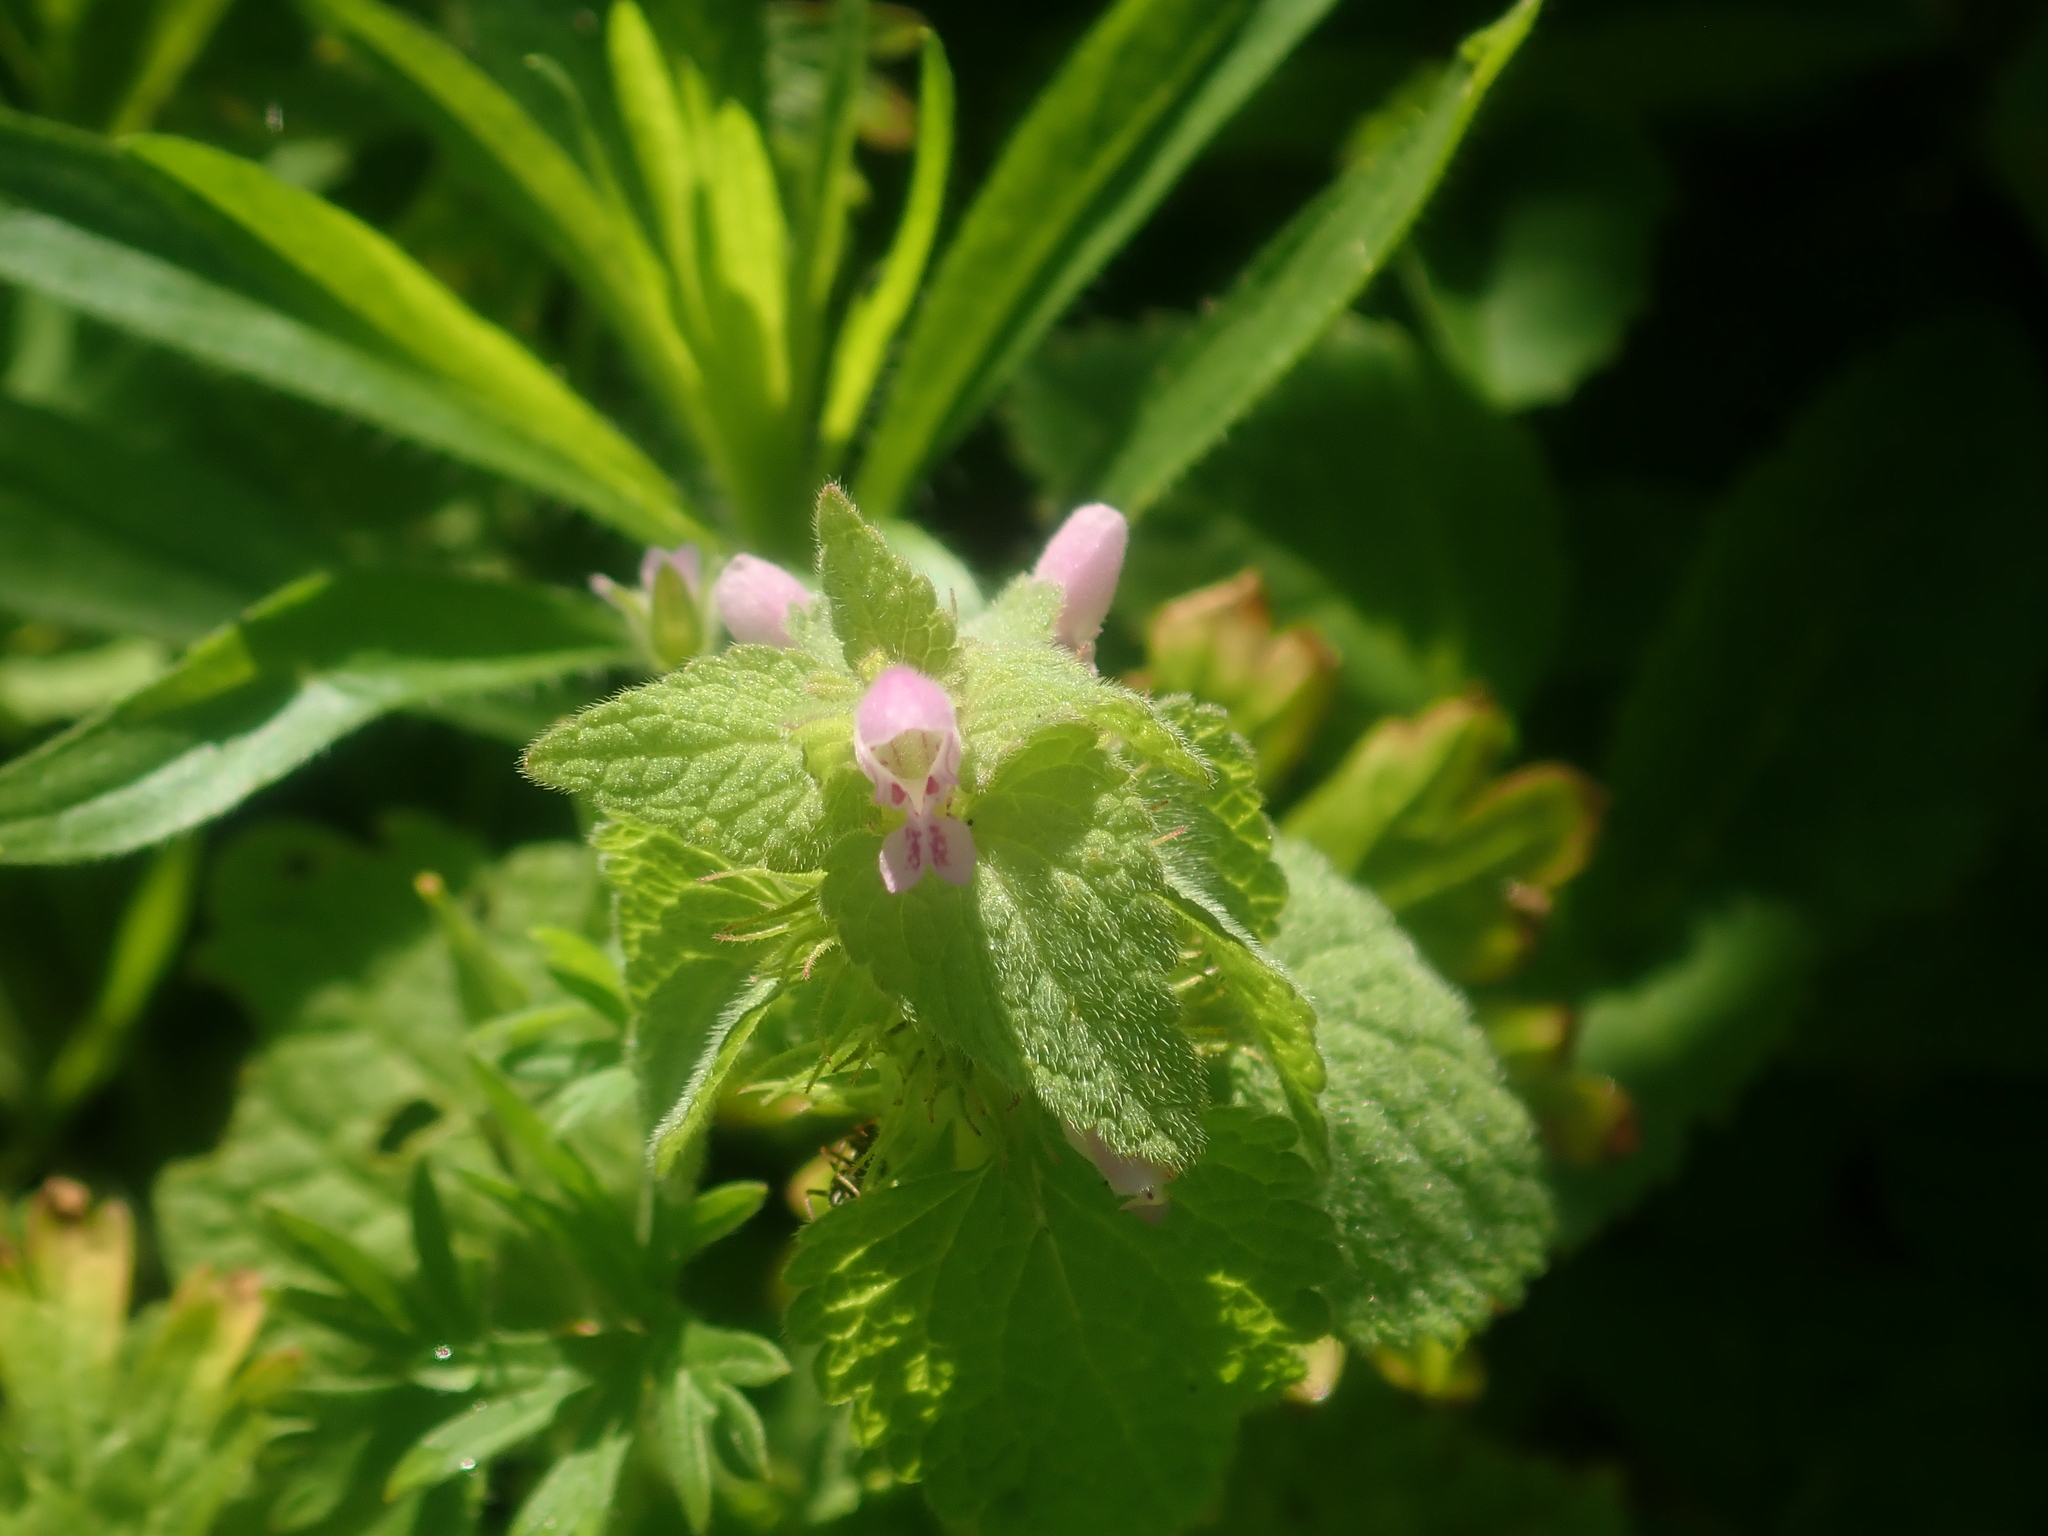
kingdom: Plantae
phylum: Tracheophyta
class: Magnoliopsida
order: Lamiales
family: Lamiaceae
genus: Lamium
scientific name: Lamium purpureum
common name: Red dead-nettle
